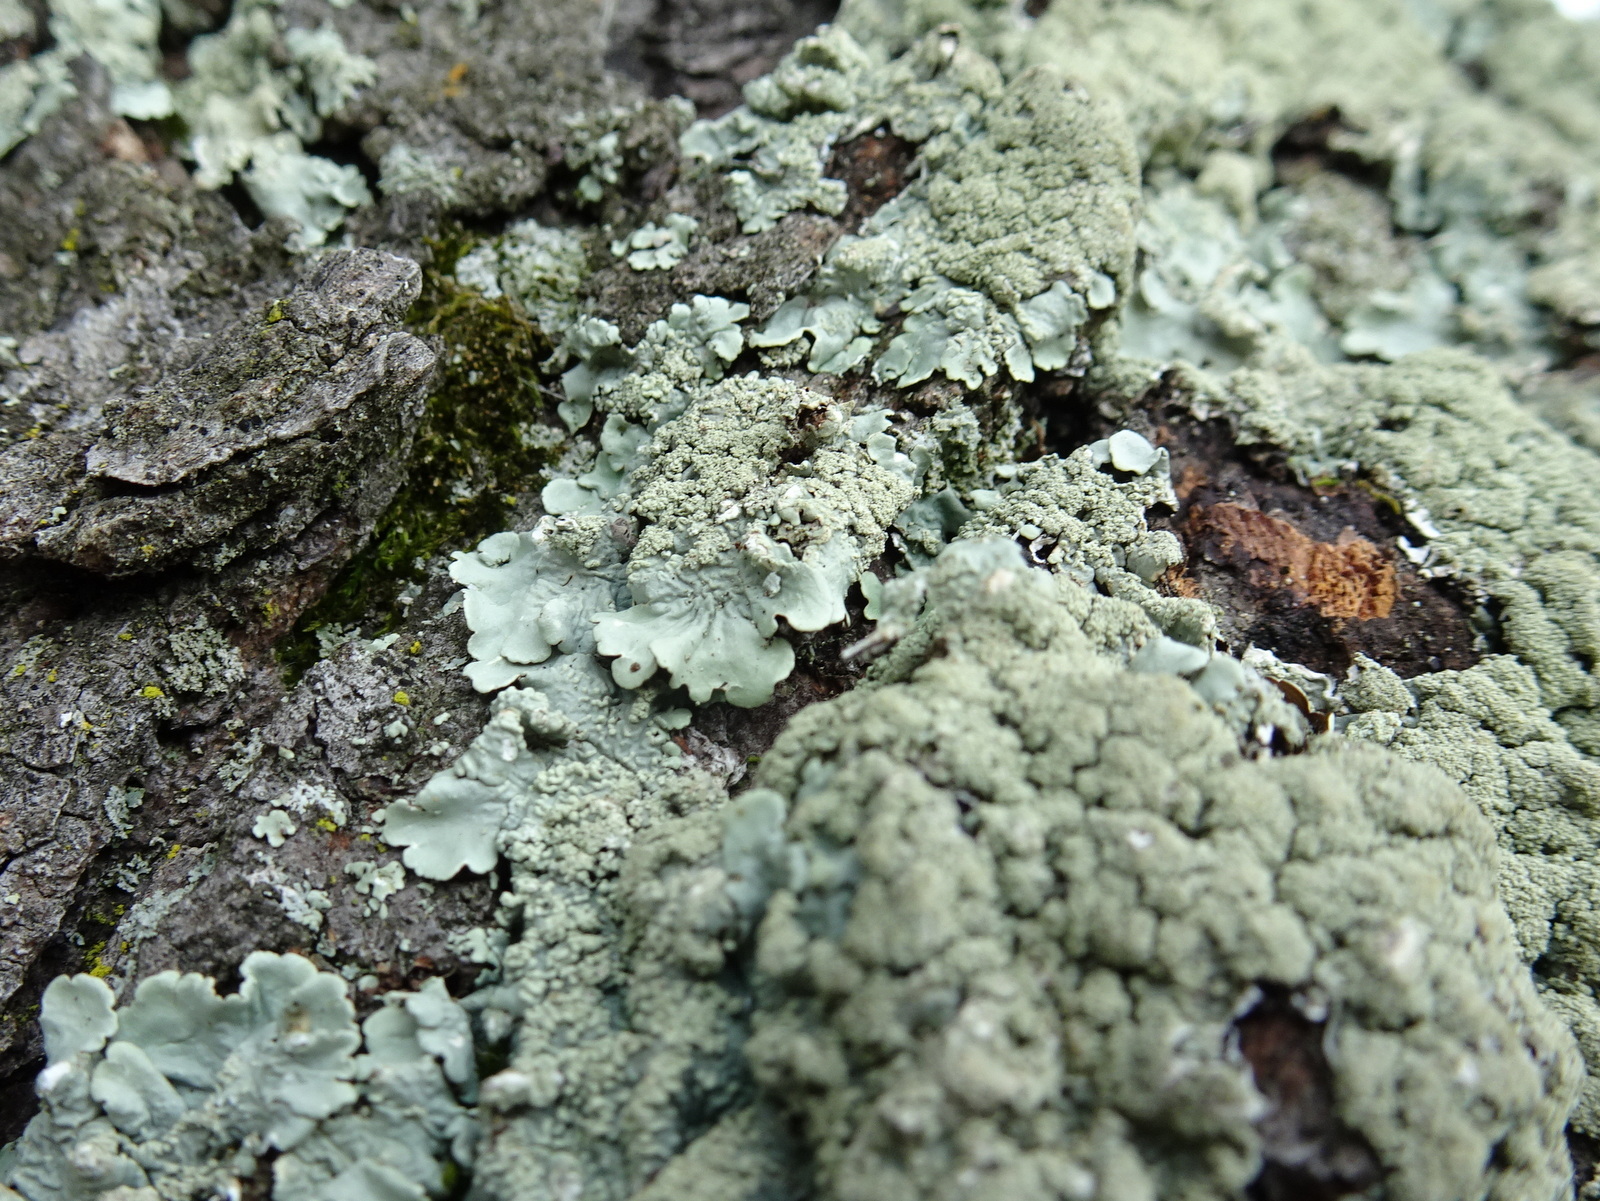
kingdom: Fungi
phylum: Ascomycota
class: Lecanoromycetes
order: Lecanorales
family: Parmeliaceae
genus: Flavoparmelia
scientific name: Flavoparmelia caperata
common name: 40-mile per hour lichen
